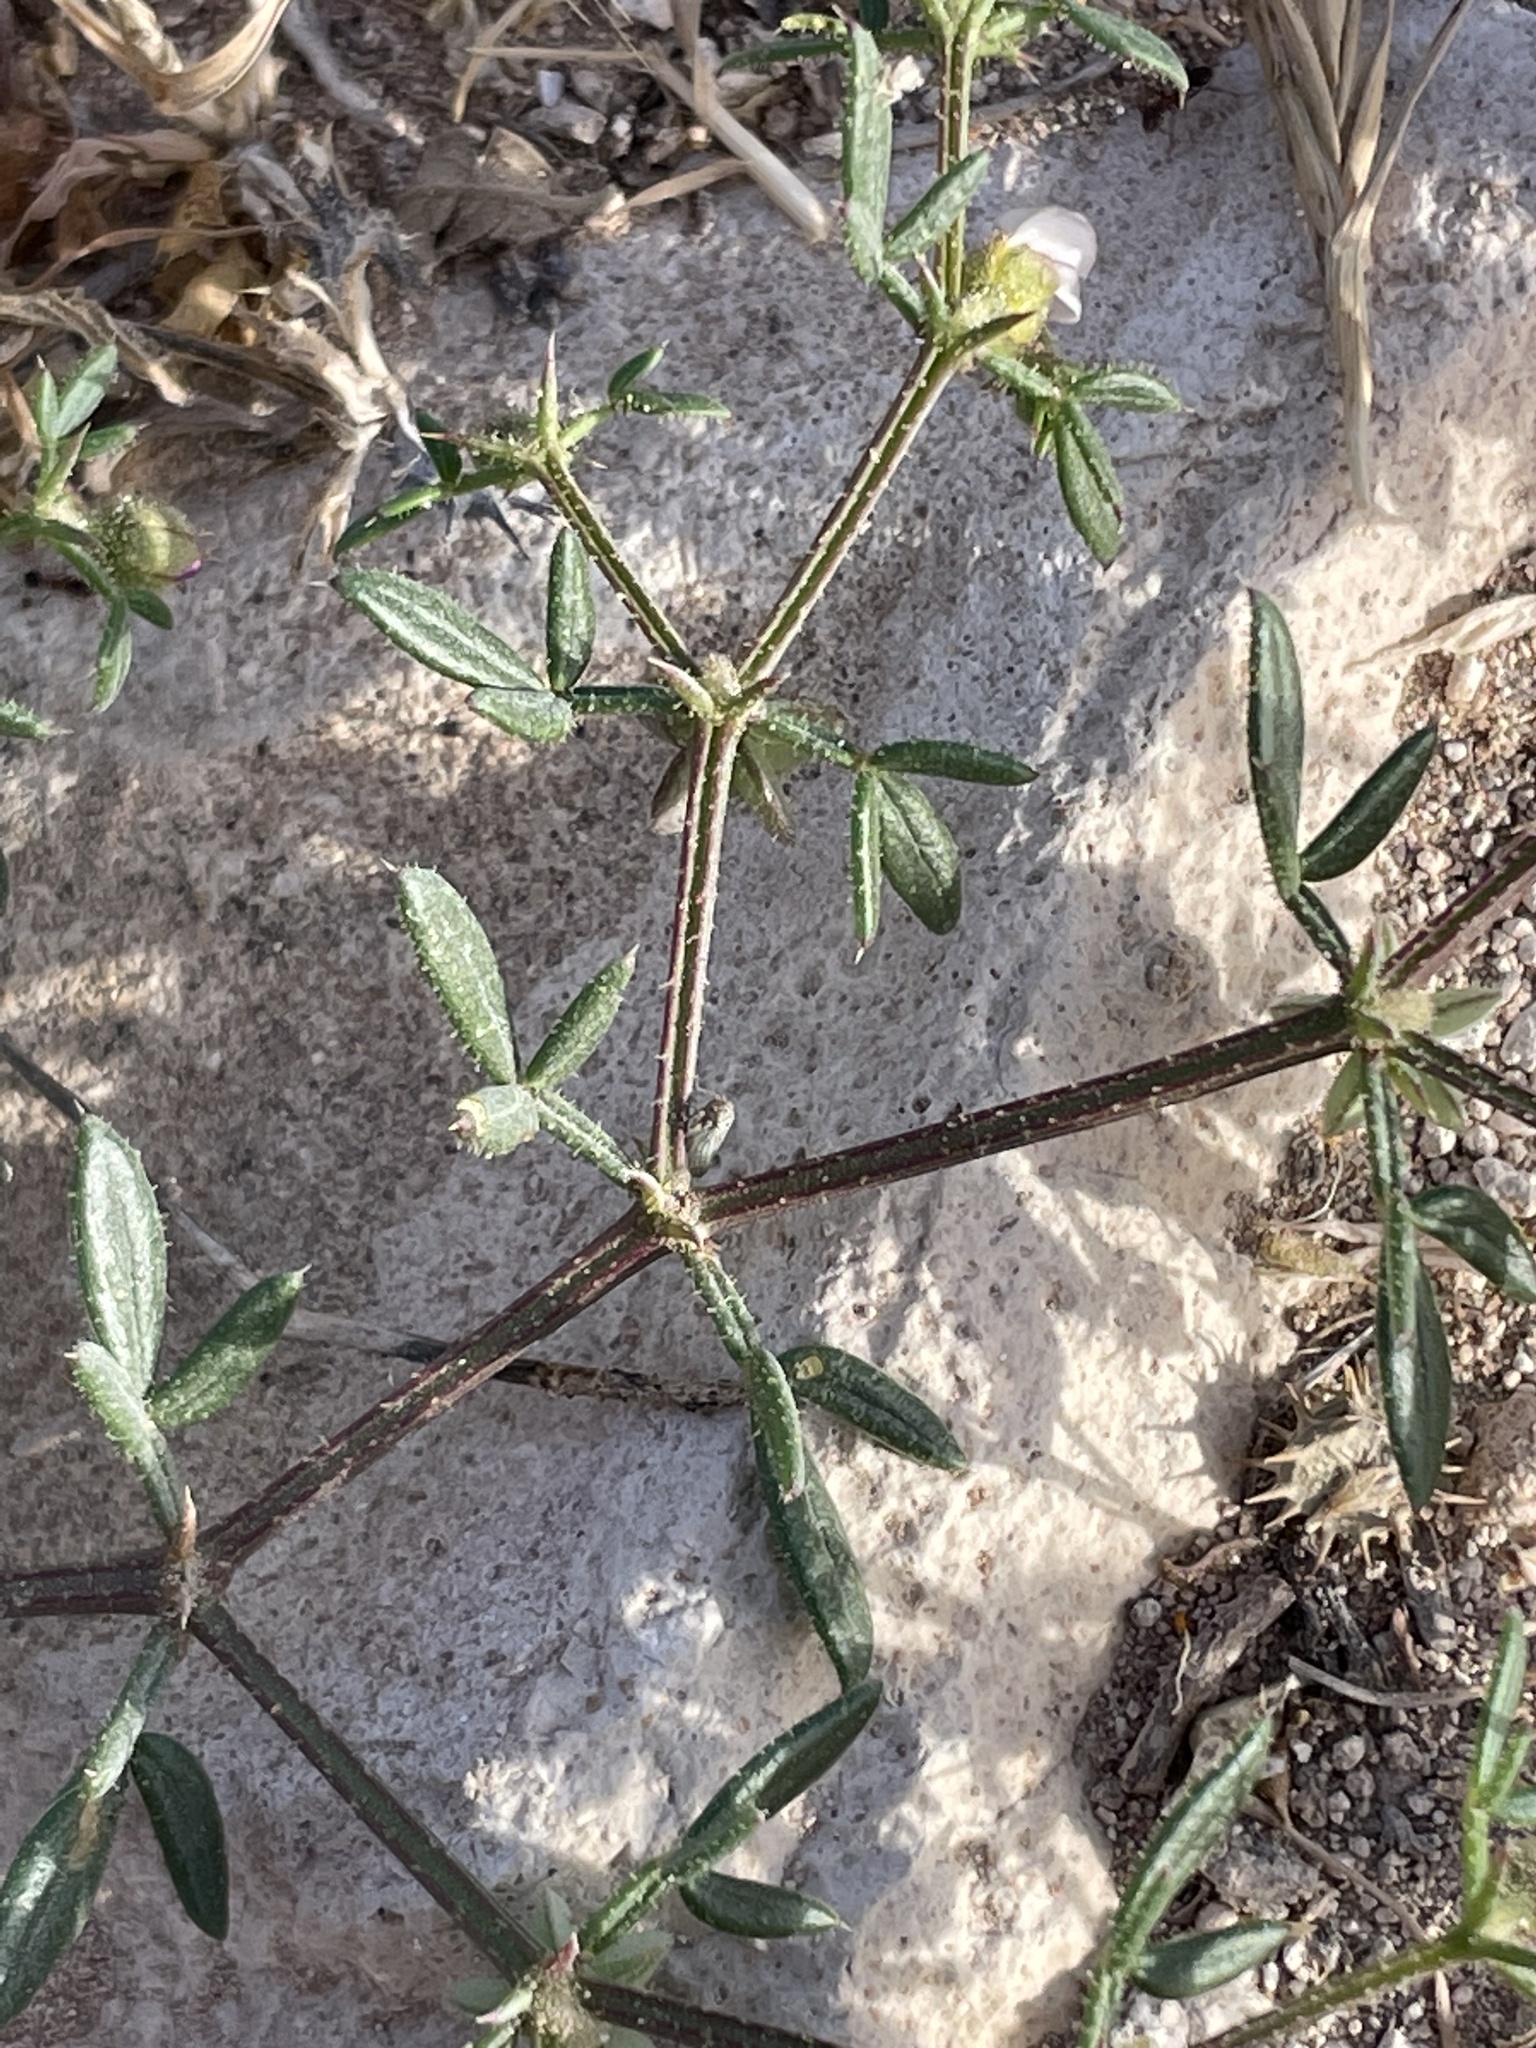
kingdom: Plantae
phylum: Tracheophyta
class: Magnoliopsida
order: Zygophyllales
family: Zygophyllaceae
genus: Fagonia
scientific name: Fagonia cretica
